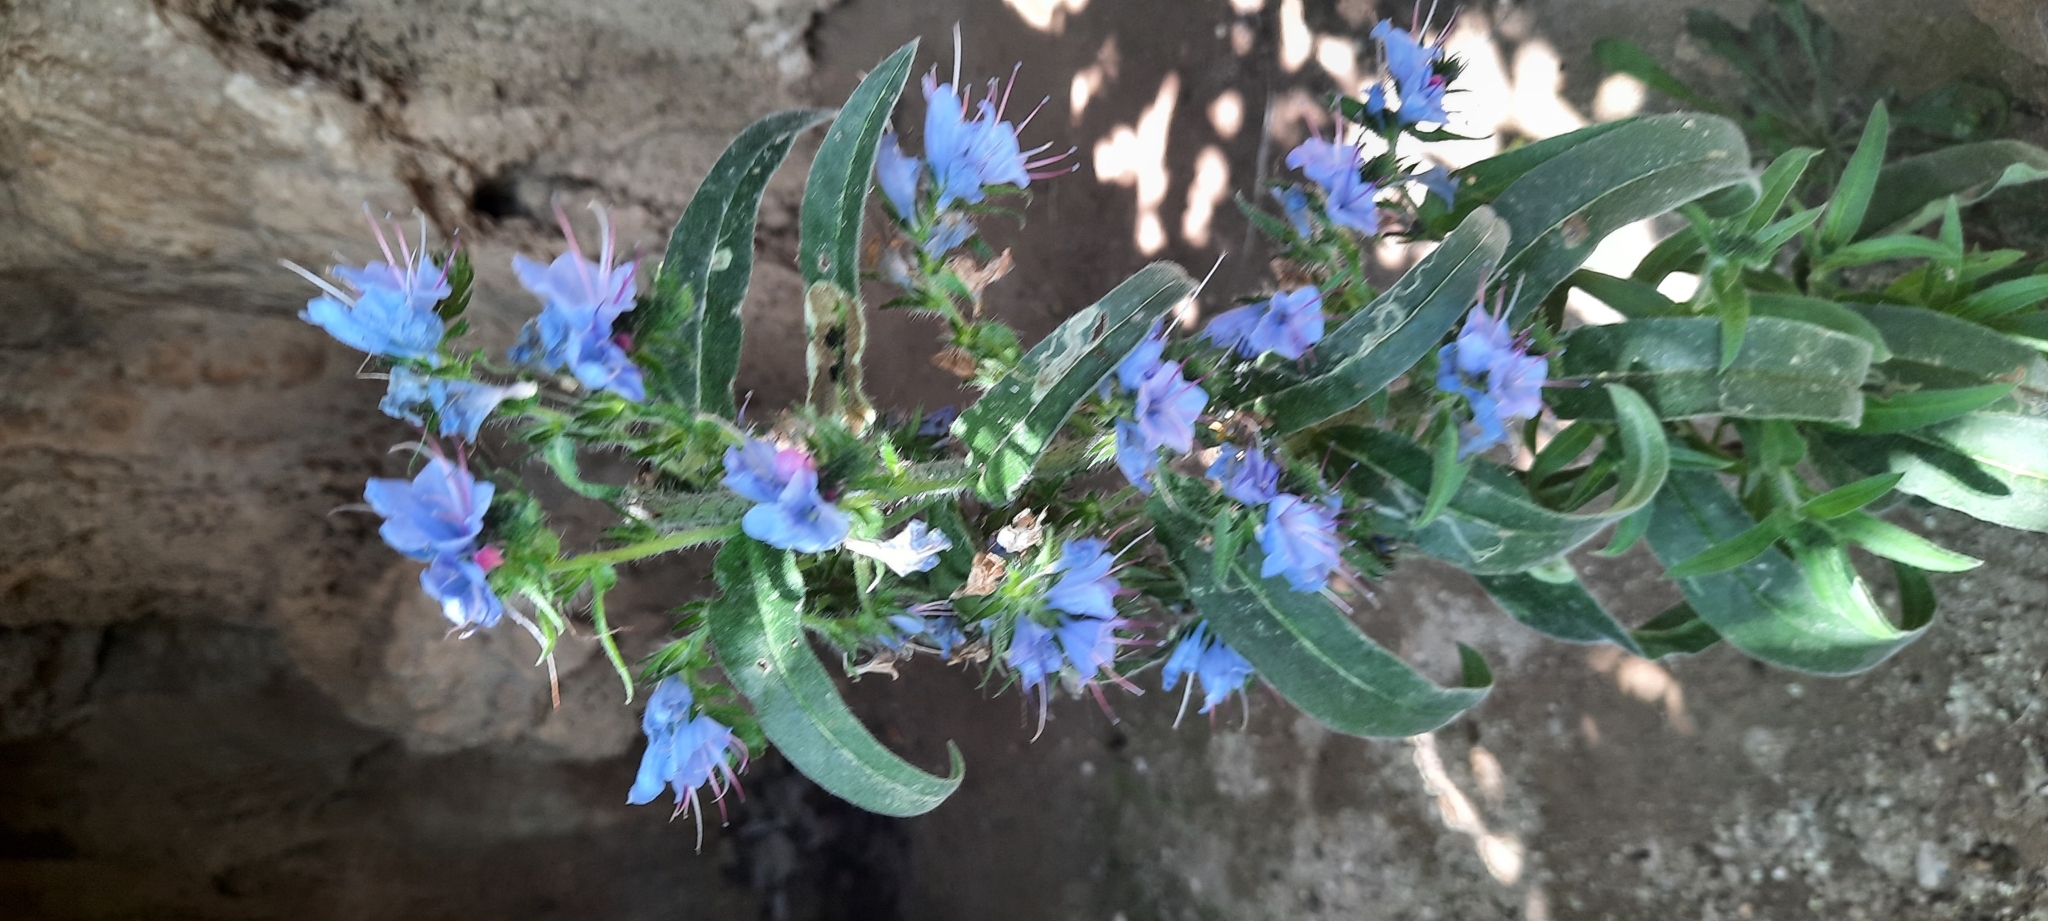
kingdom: Plantae
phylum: Tracheophyta
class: Magnoliopsida
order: Boraginales
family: Boraginaceae
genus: Echium
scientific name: Echium vulgare
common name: Common viper's bugloss
